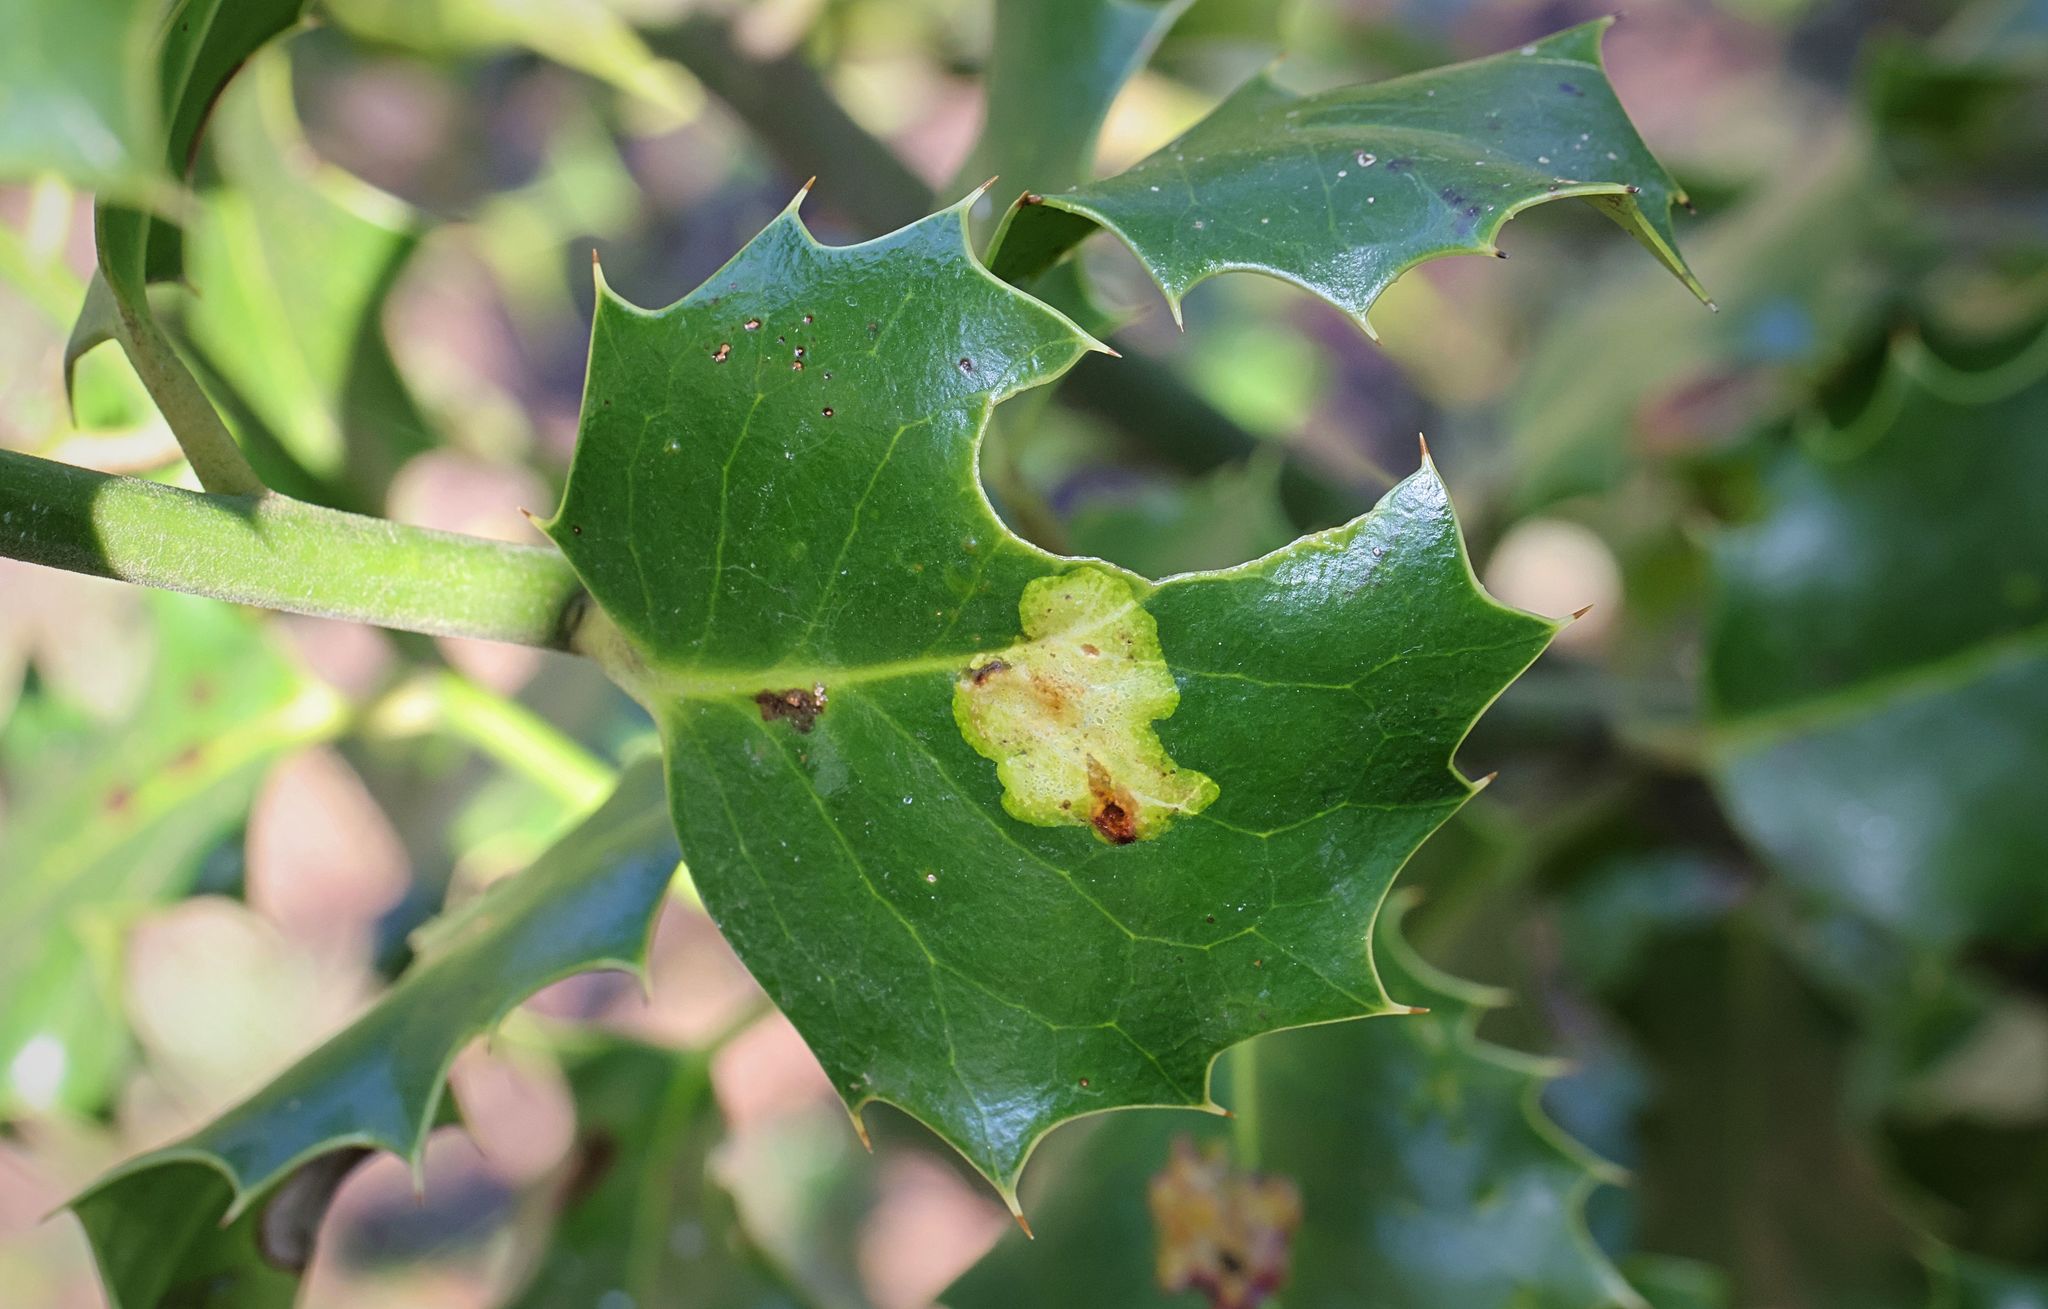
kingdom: Animalia
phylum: Arthropoda
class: Insecta
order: Diptera
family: Agromyzidae
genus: Phytomyza
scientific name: Phytomyza ilicis
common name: Holly leafminer
